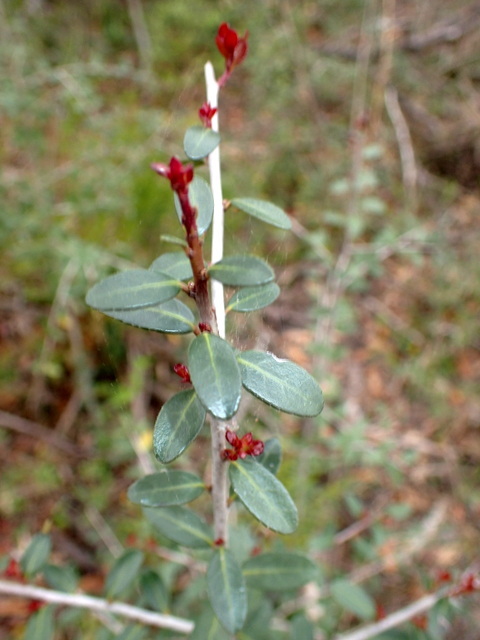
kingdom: Plantae
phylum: Tracheophyta
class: Magnoliopsida
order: Aquifoliales
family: Aquifoliaceae
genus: Ilex
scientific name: Ilex vomitoria
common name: Yaupon holly
